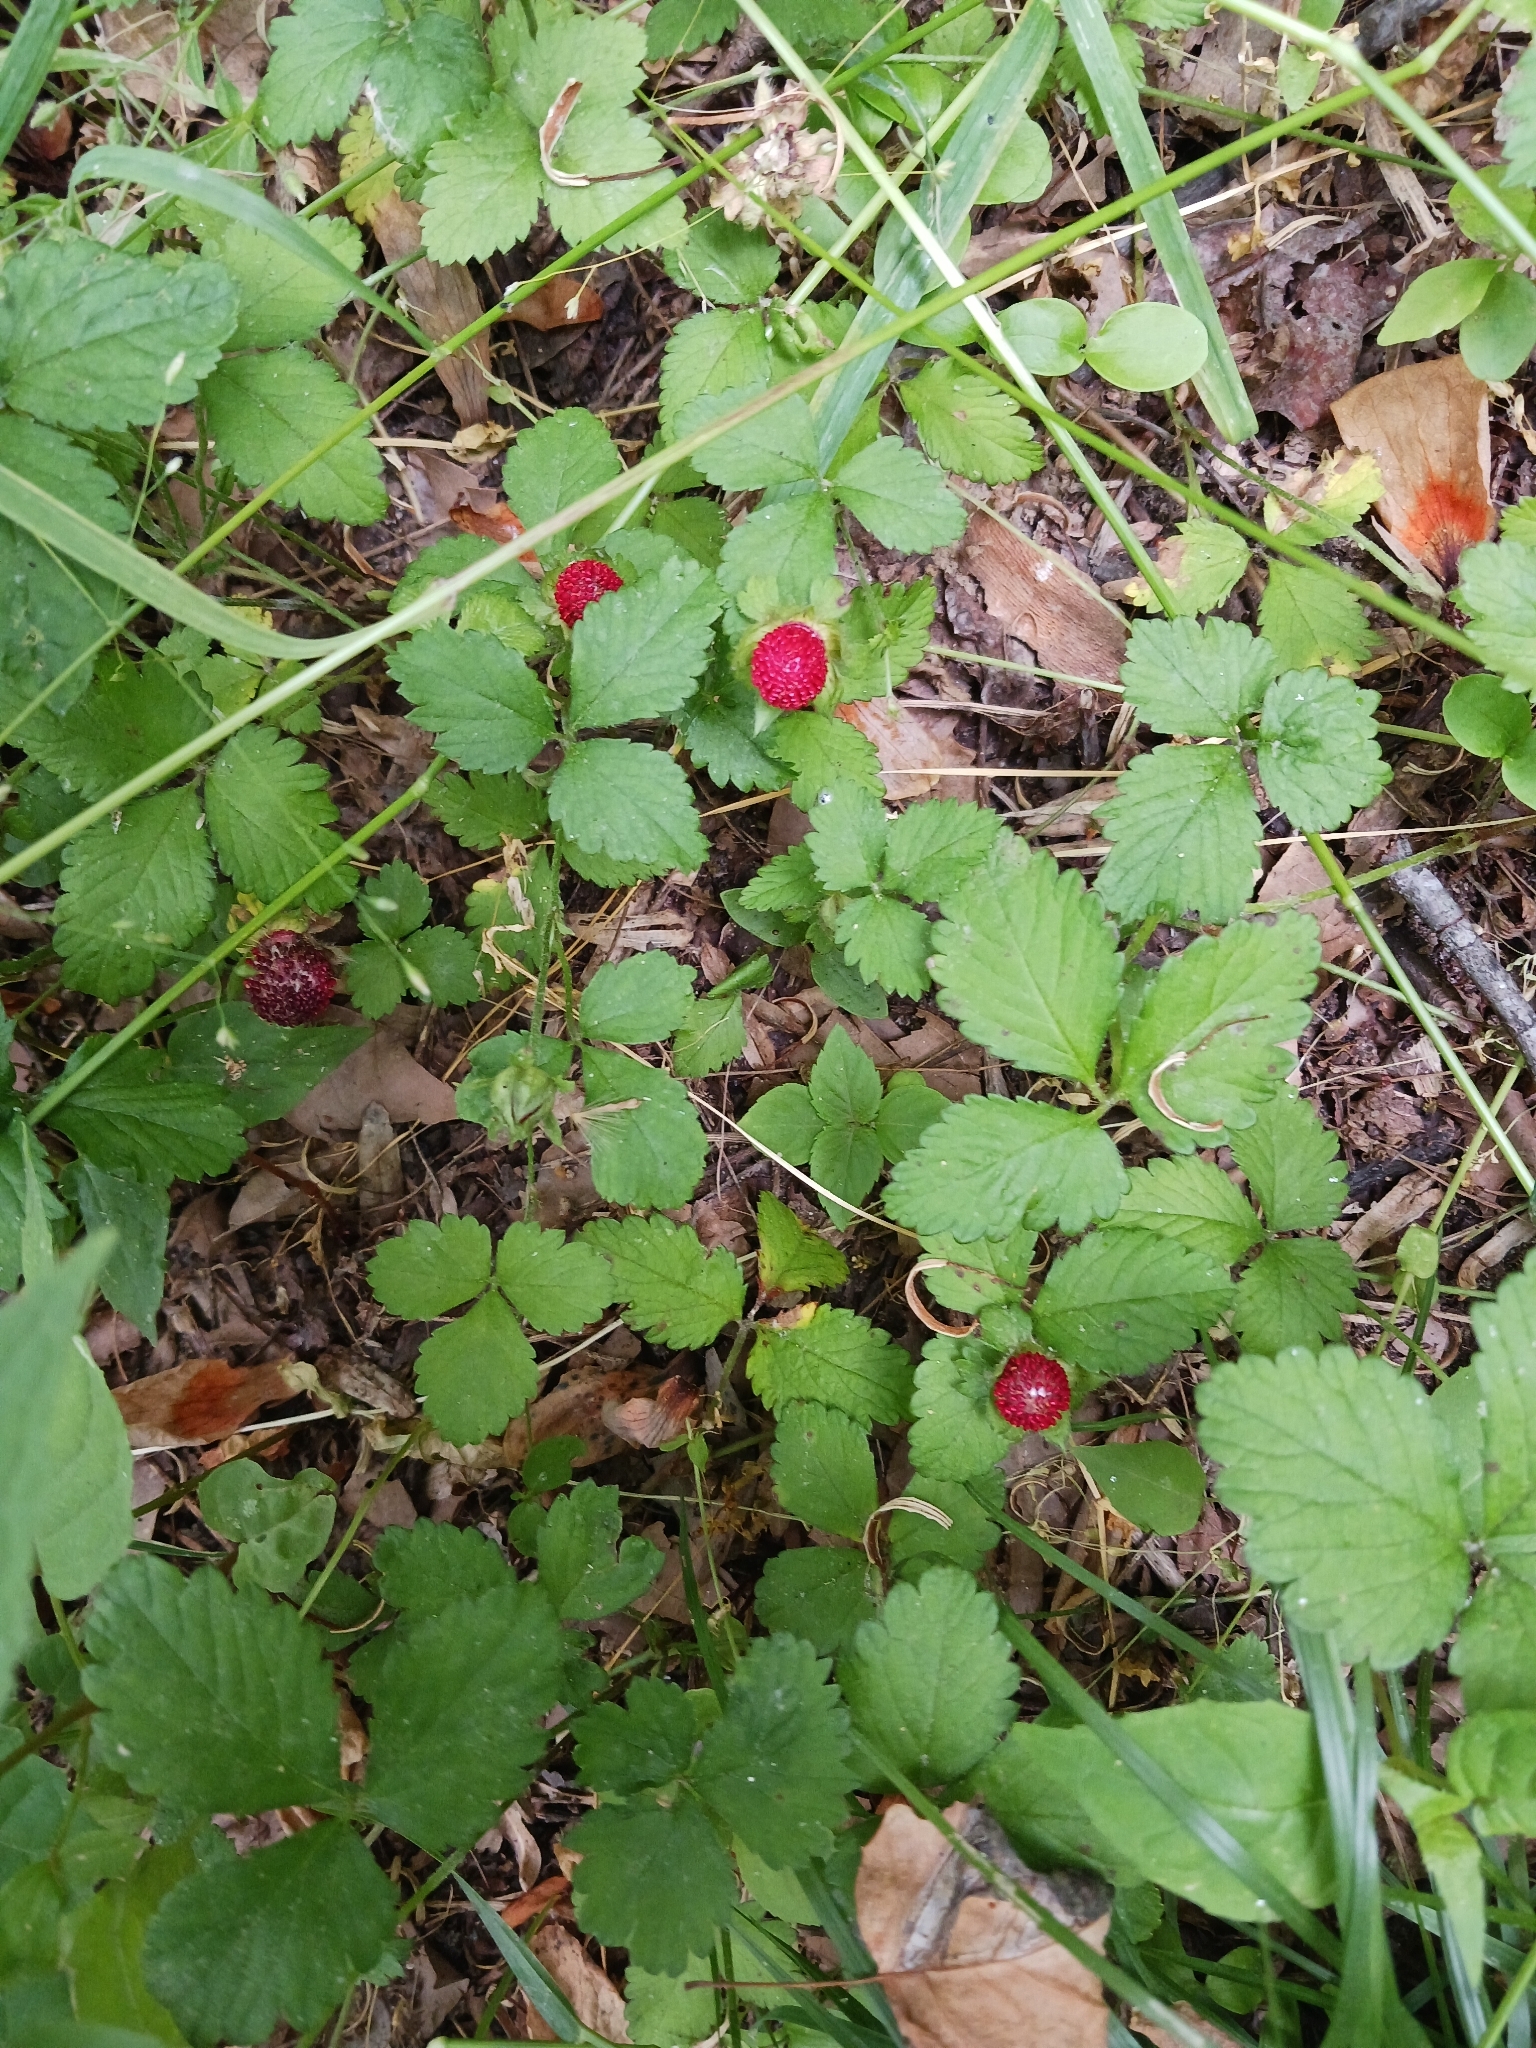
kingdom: Plantae
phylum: Tracheophyta
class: Magnoliopsida
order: Rosales
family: Rosaceae
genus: Potentilla
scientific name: Potentilla indica
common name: Yellow-flowered strawberry
